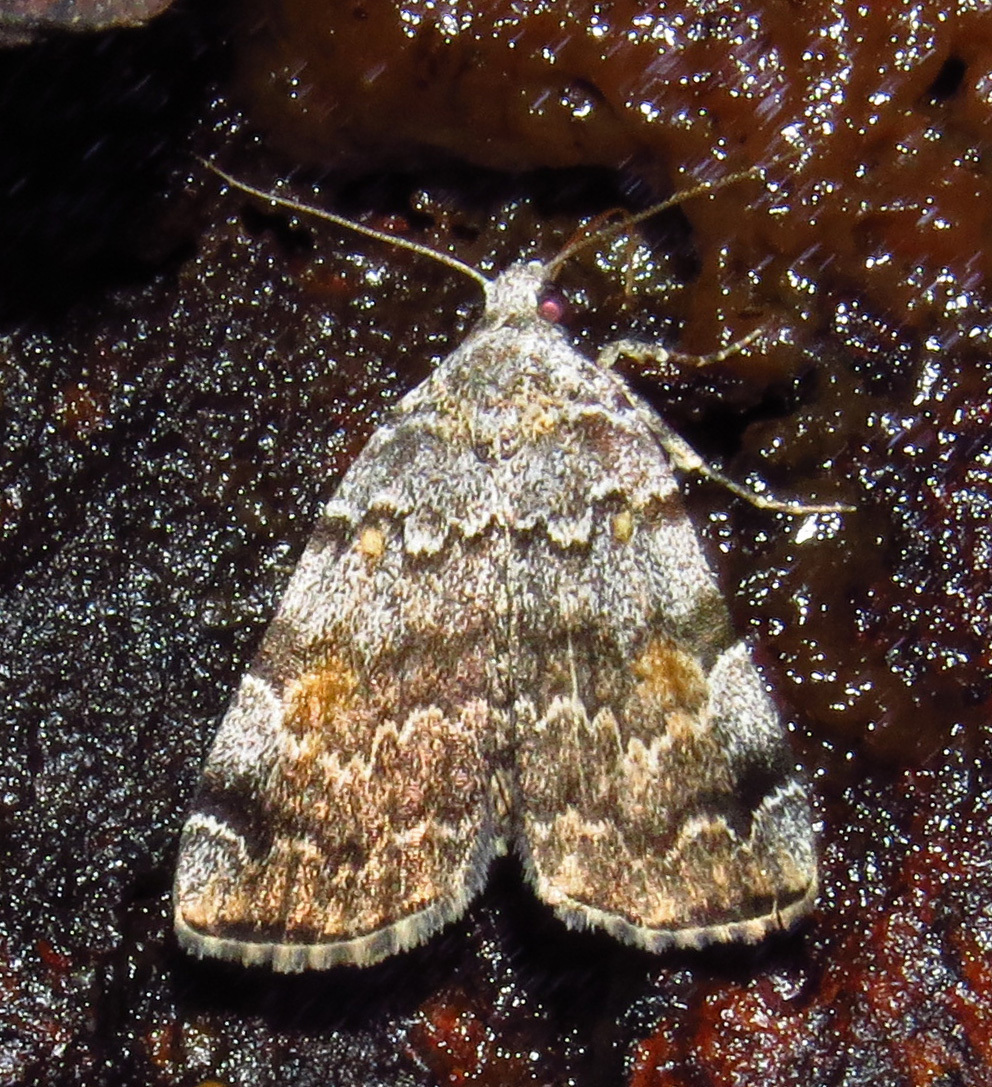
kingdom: Animalia
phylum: Arthropoda
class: Insecta
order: Lepidoptera
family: Erebidae
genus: Idia
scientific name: Idia americalis
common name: American idia moth
